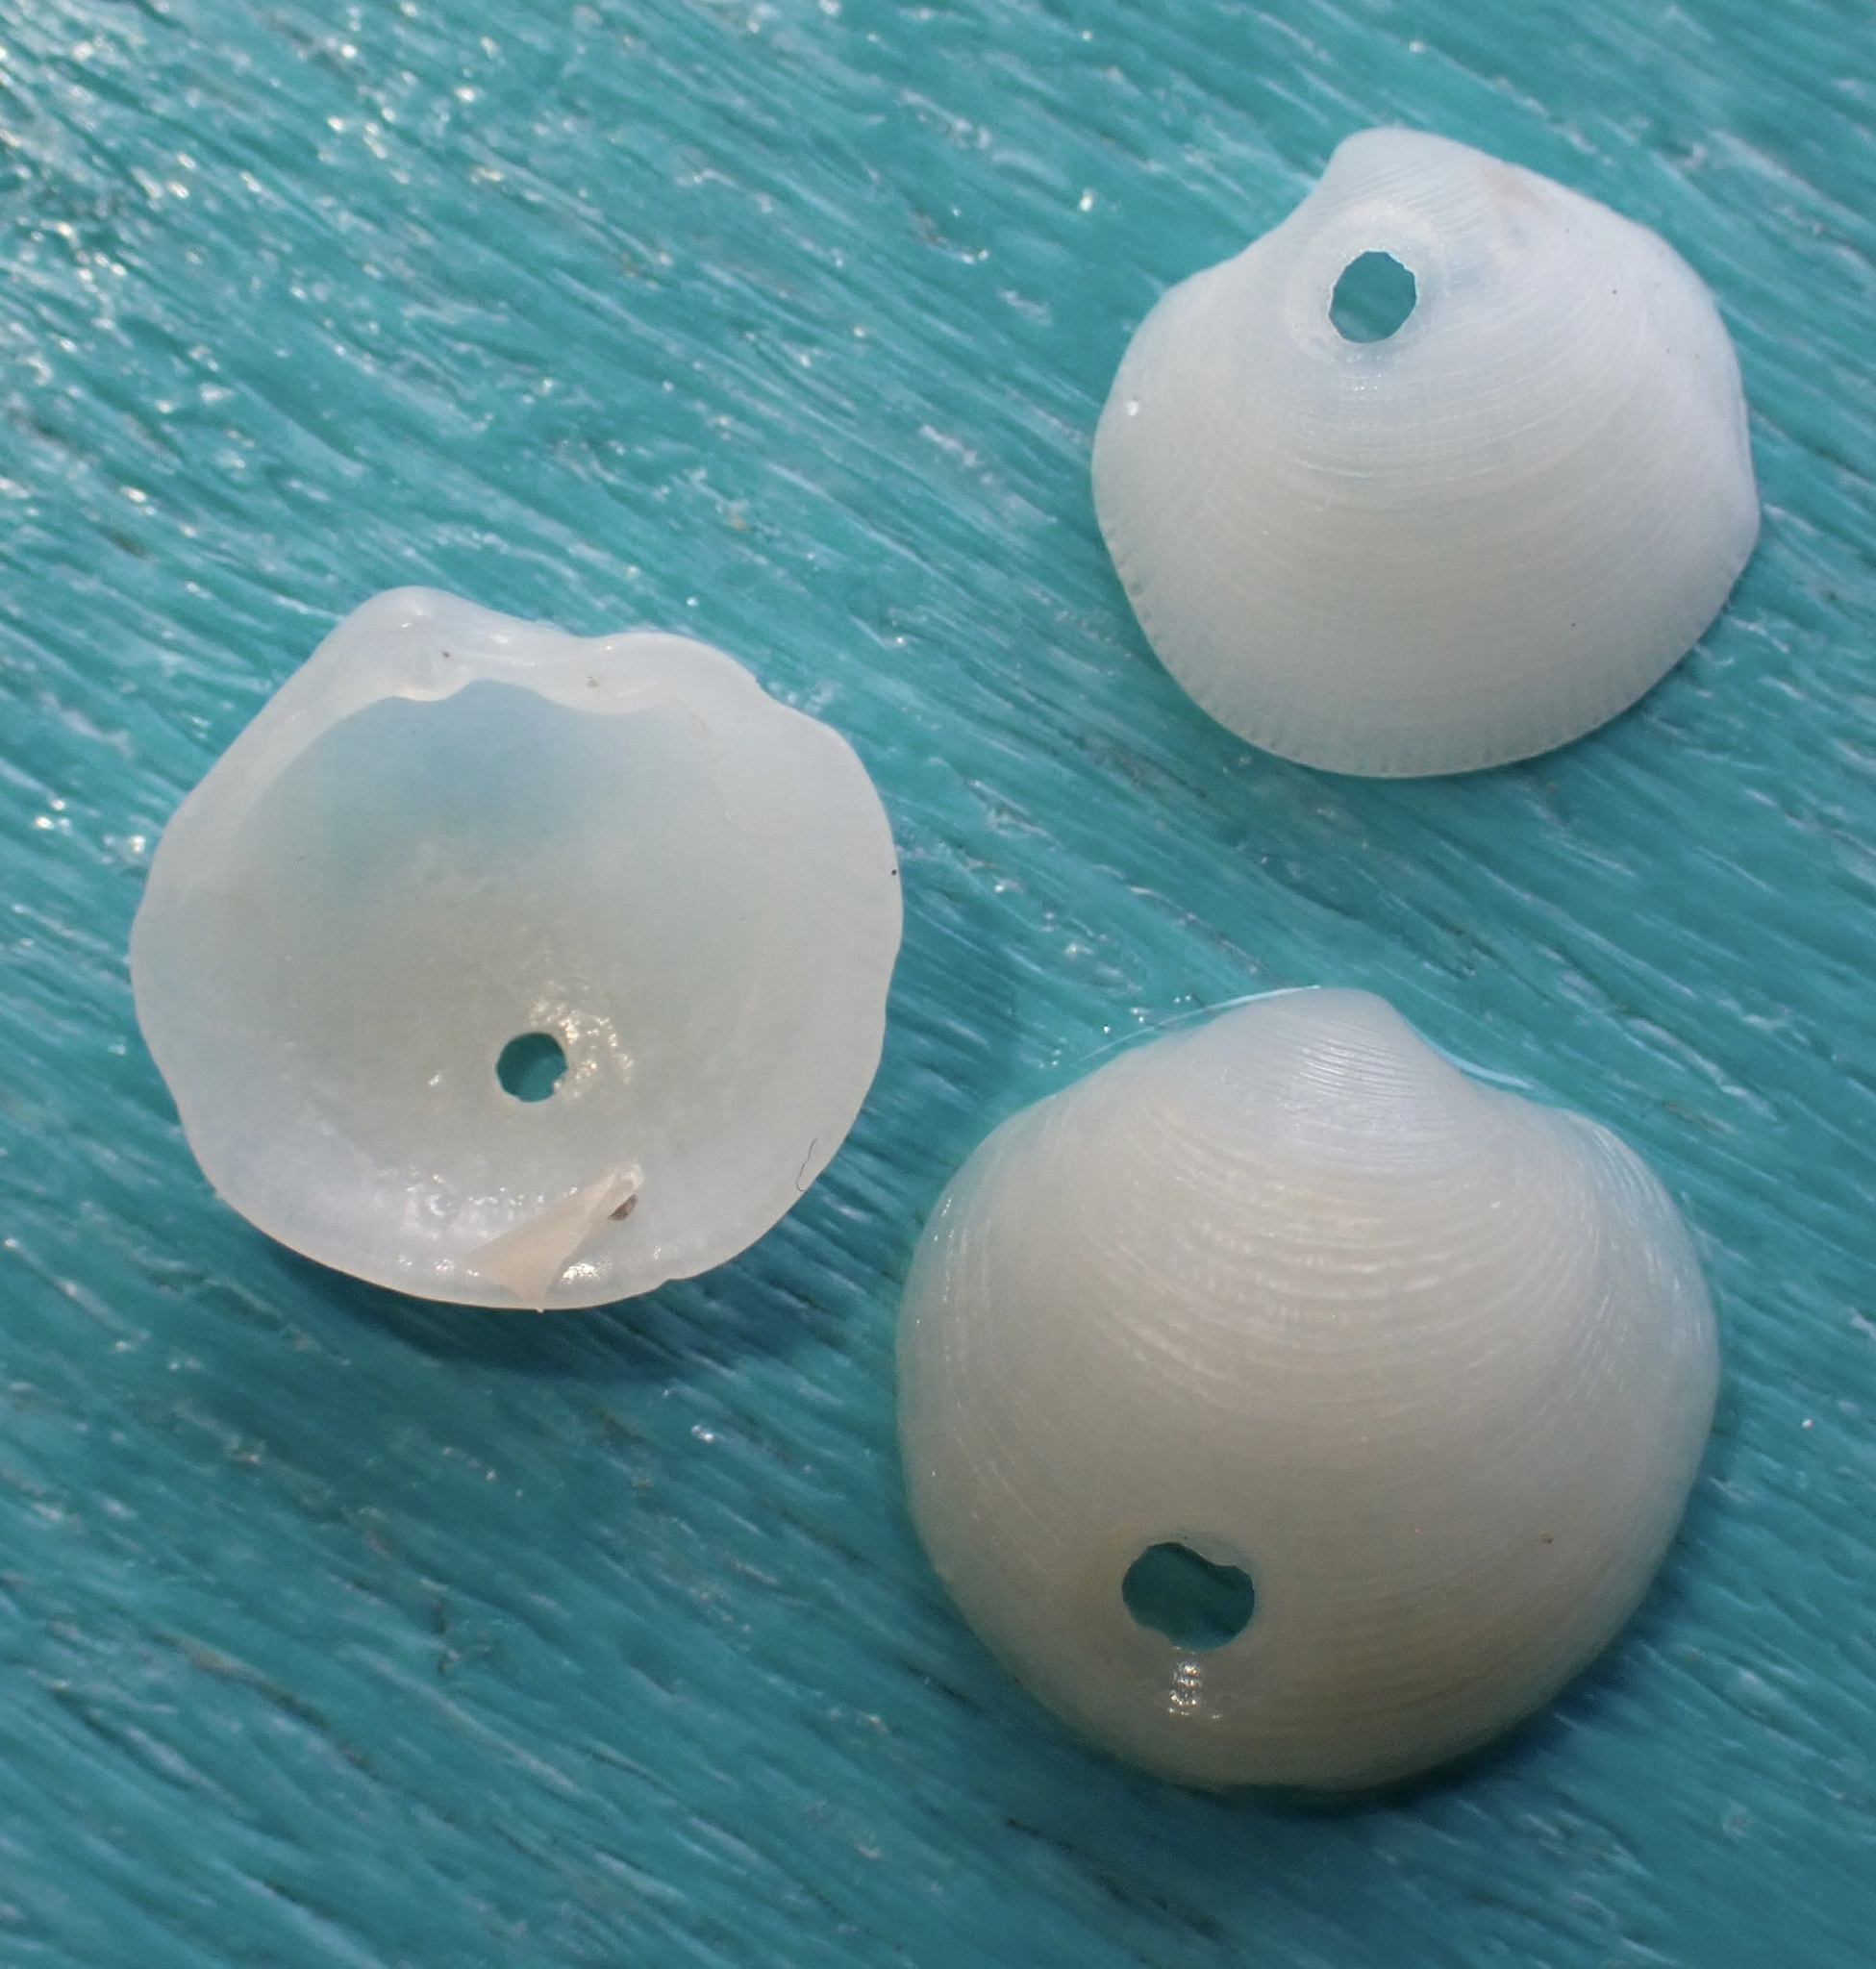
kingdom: Animalia
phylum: Mollusca
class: Bivalvia
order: Lucinida
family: Lucinidae
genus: Parvilucina
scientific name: Parvilucina crenella
